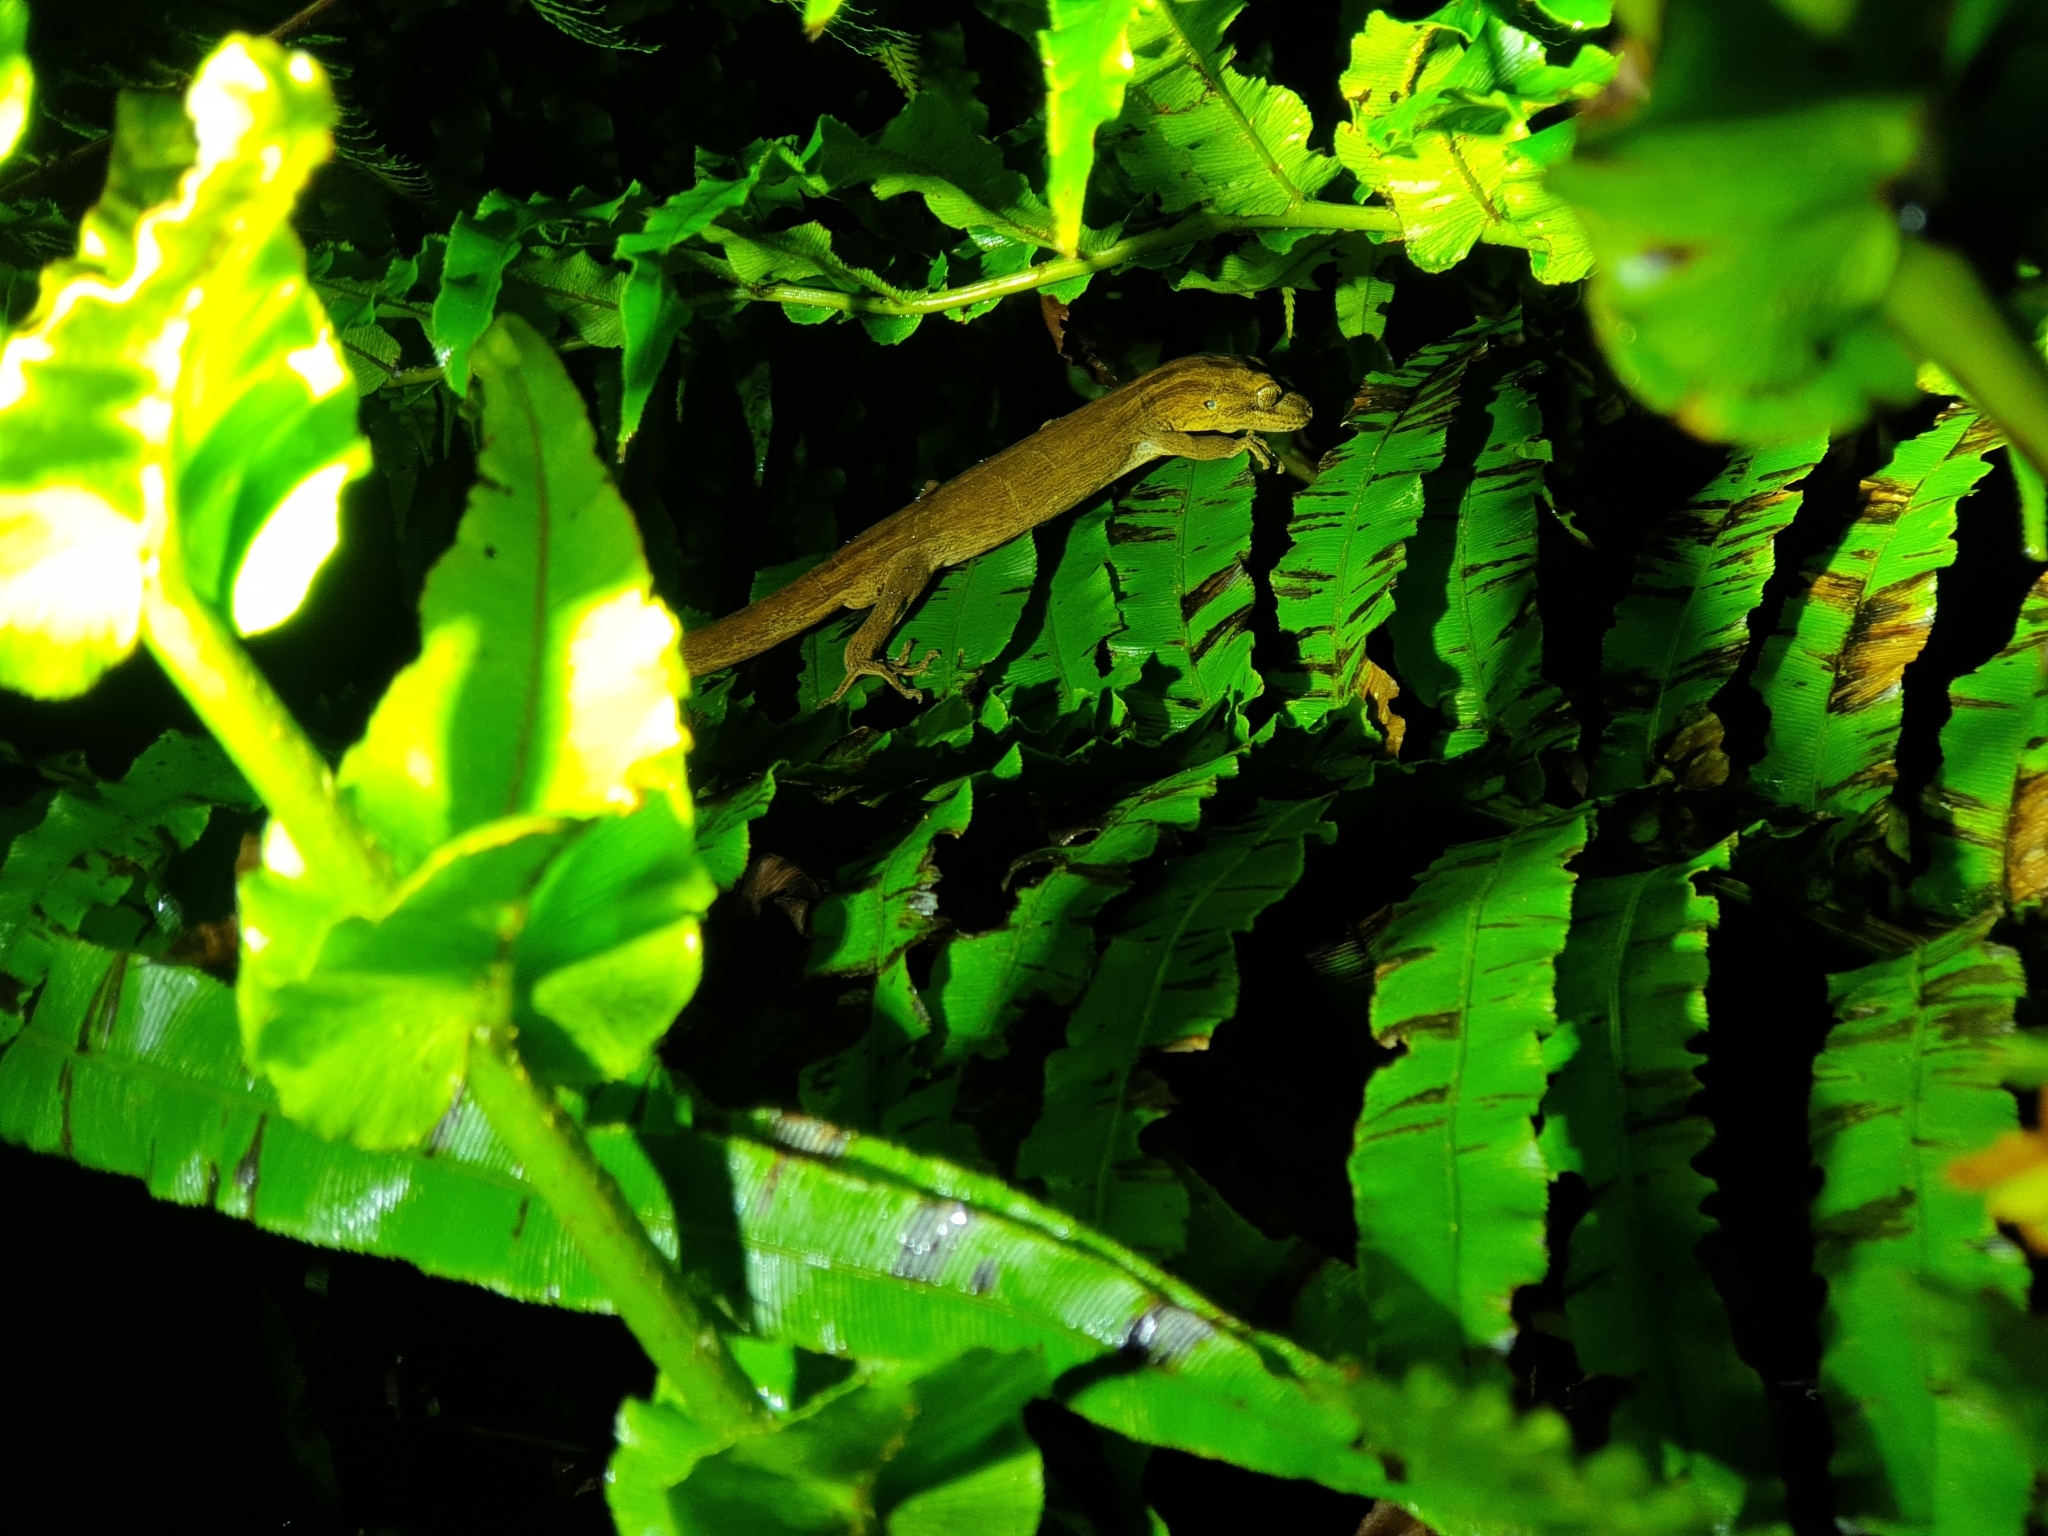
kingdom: Animalia
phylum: Chordata
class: Squamata
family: Diplodactylidae
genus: Toropuku
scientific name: Toropuku inexpectatus
